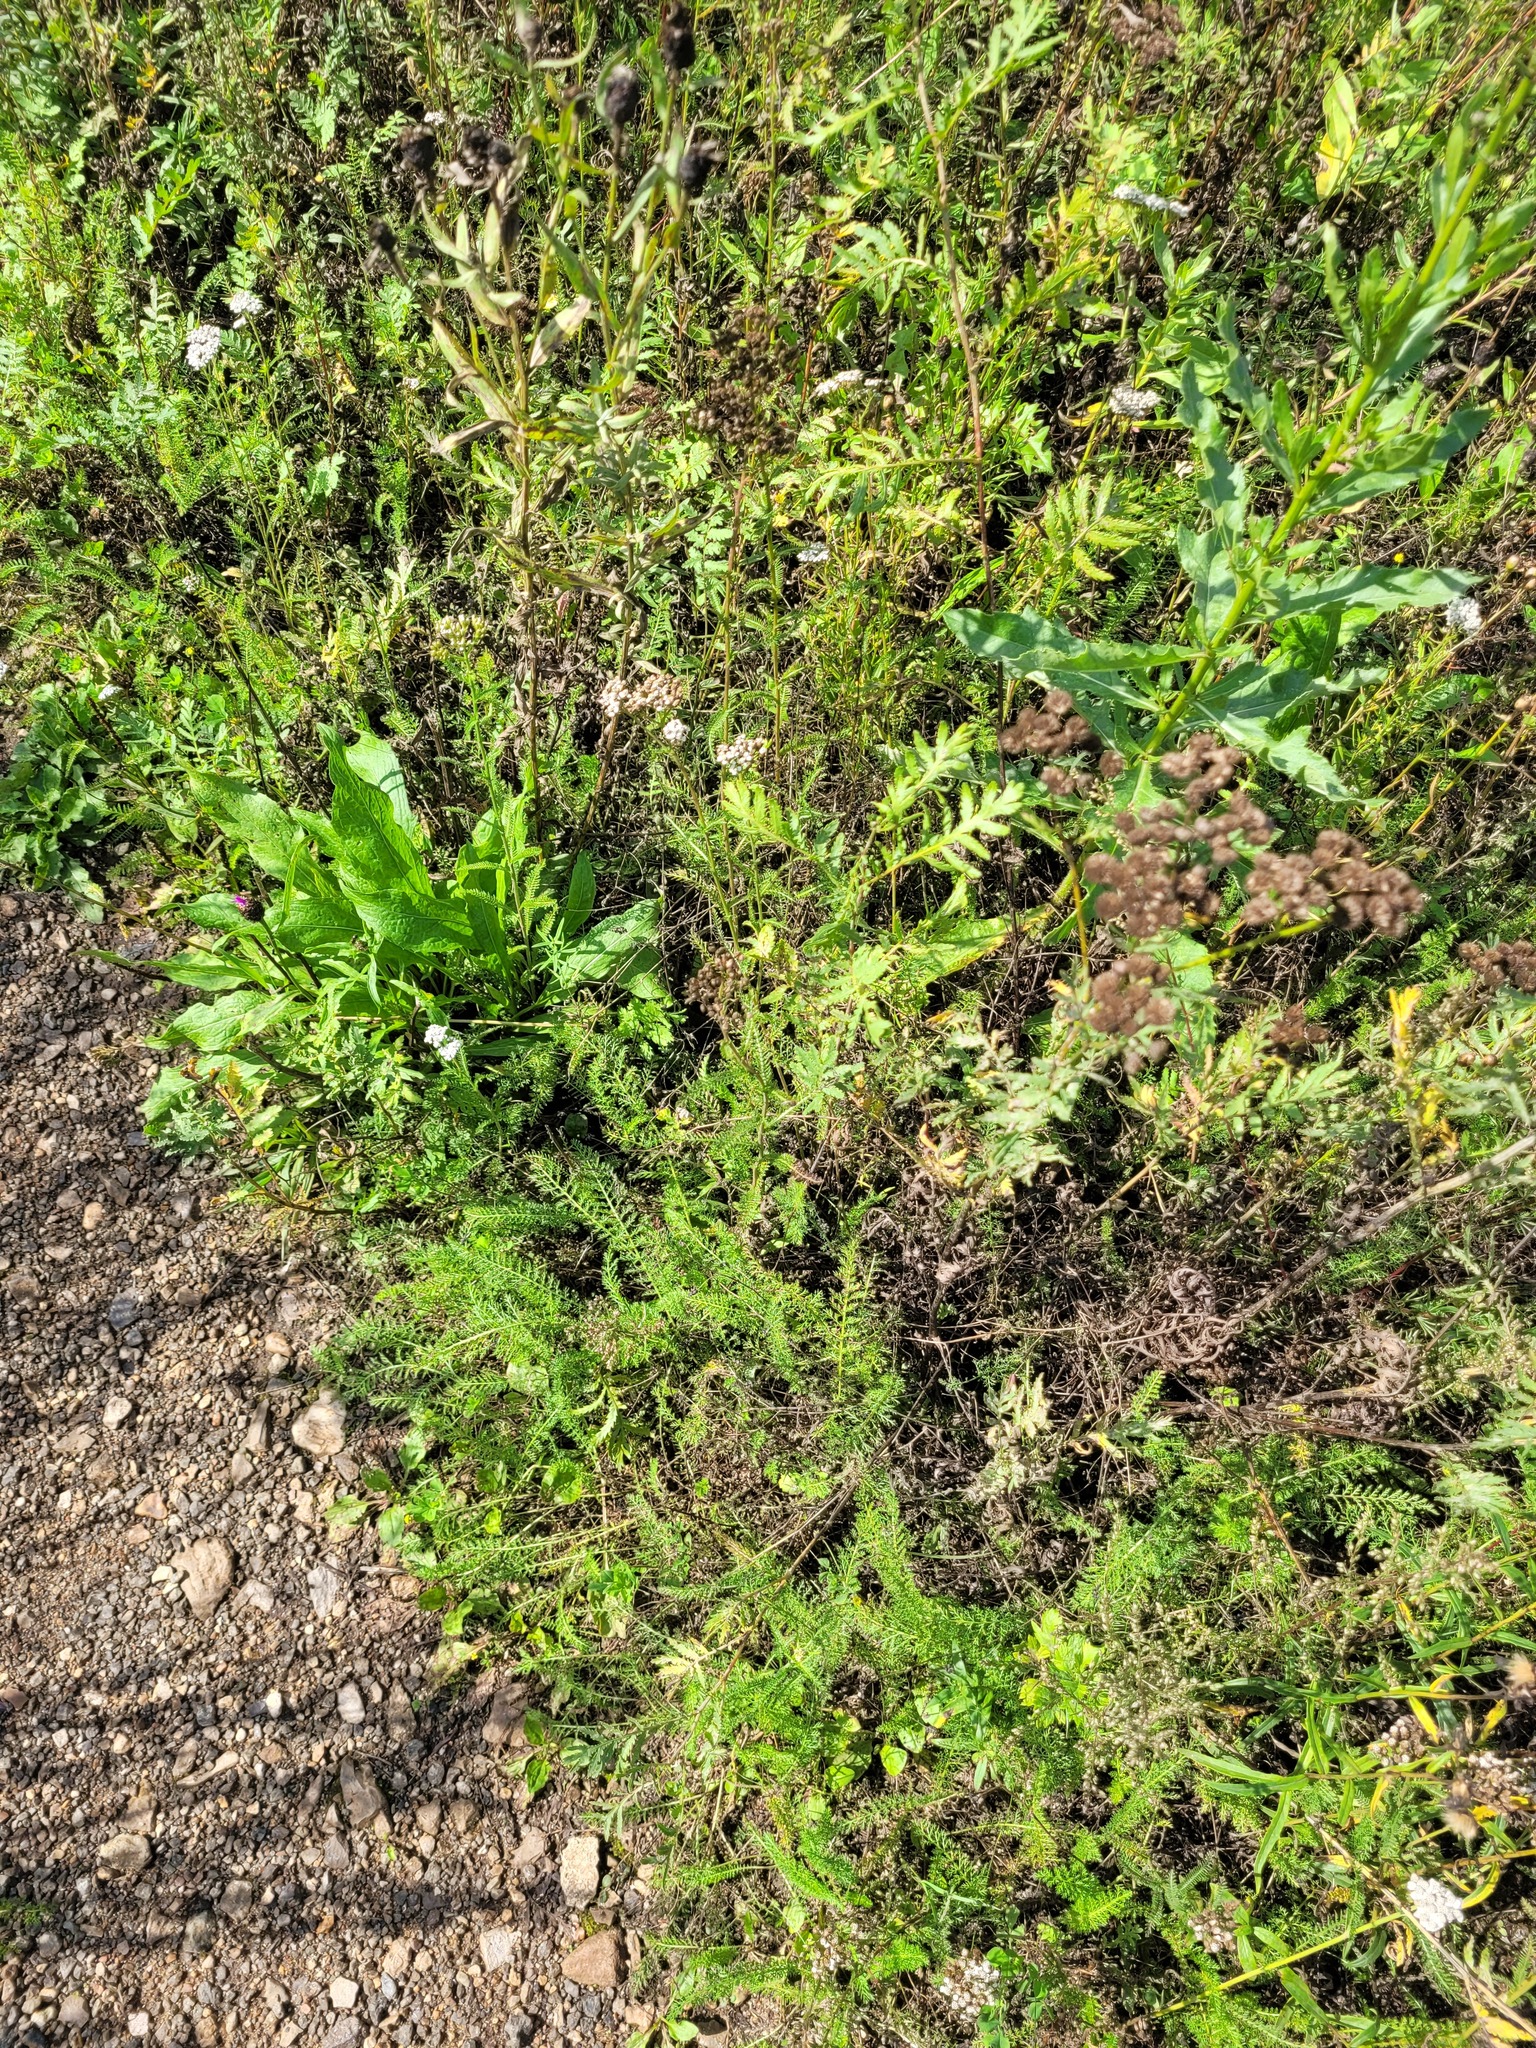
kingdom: Plantae
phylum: Tracheophyta
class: Magnoliopsida
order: Asterales
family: Asteraceae
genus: Achillea
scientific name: Achillea millefolium
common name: Yarrow
